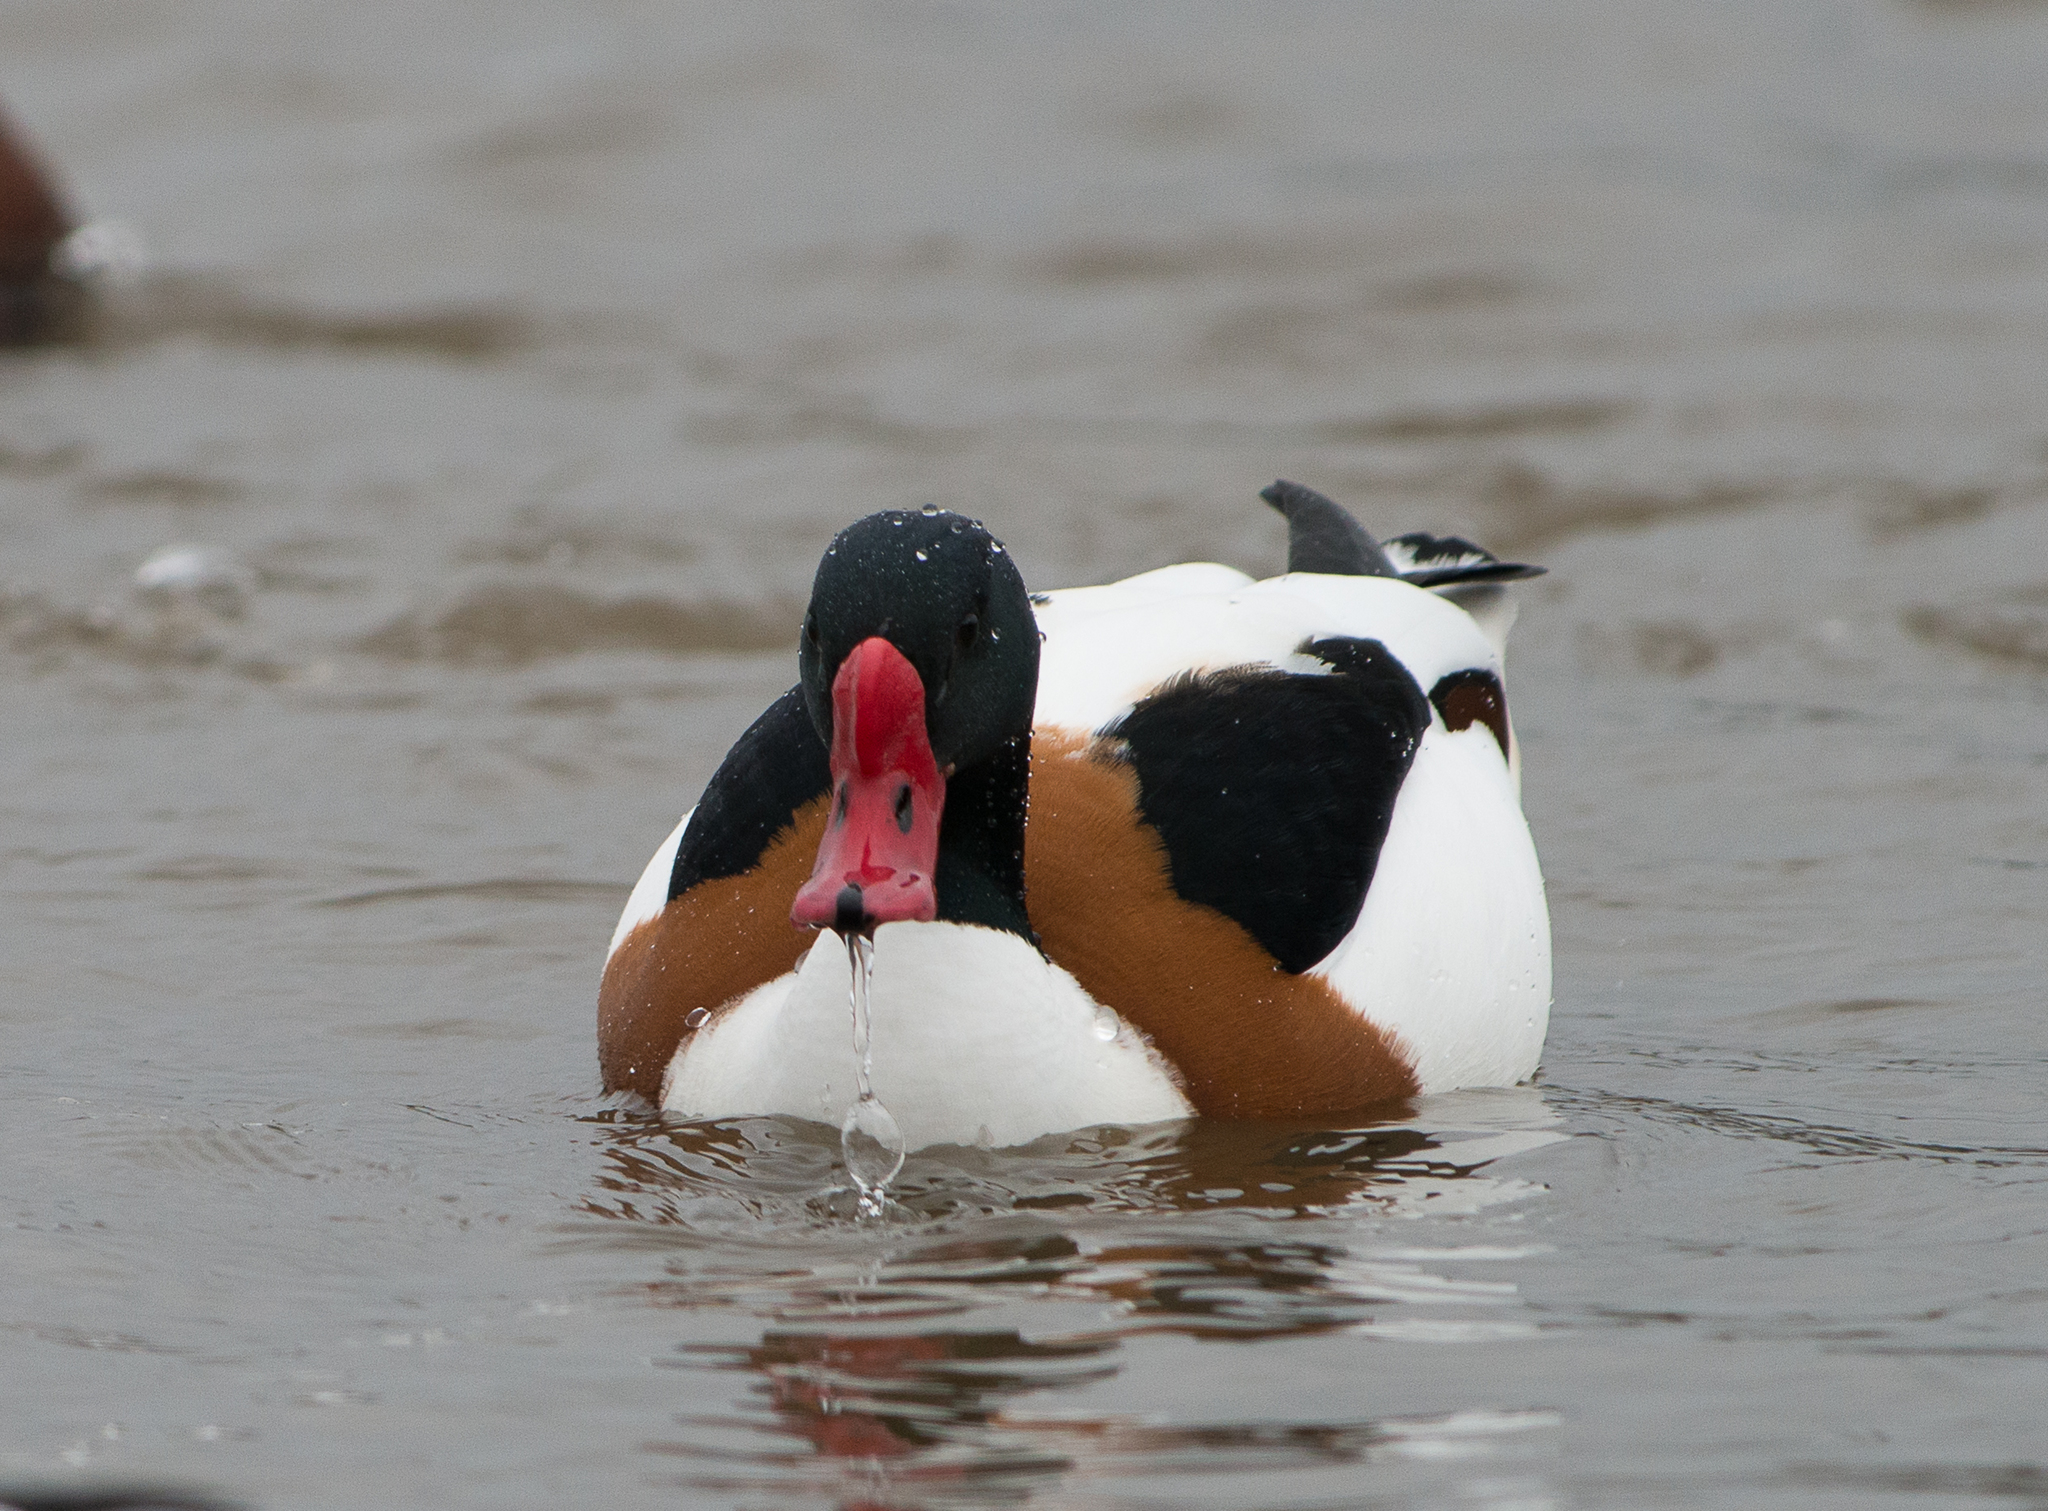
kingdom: Animalia
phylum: Chordata
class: Aves
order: Anseriformes
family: Anatidae
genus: Tadorna
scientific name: Tadorna tadorna
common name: Common shelduck
